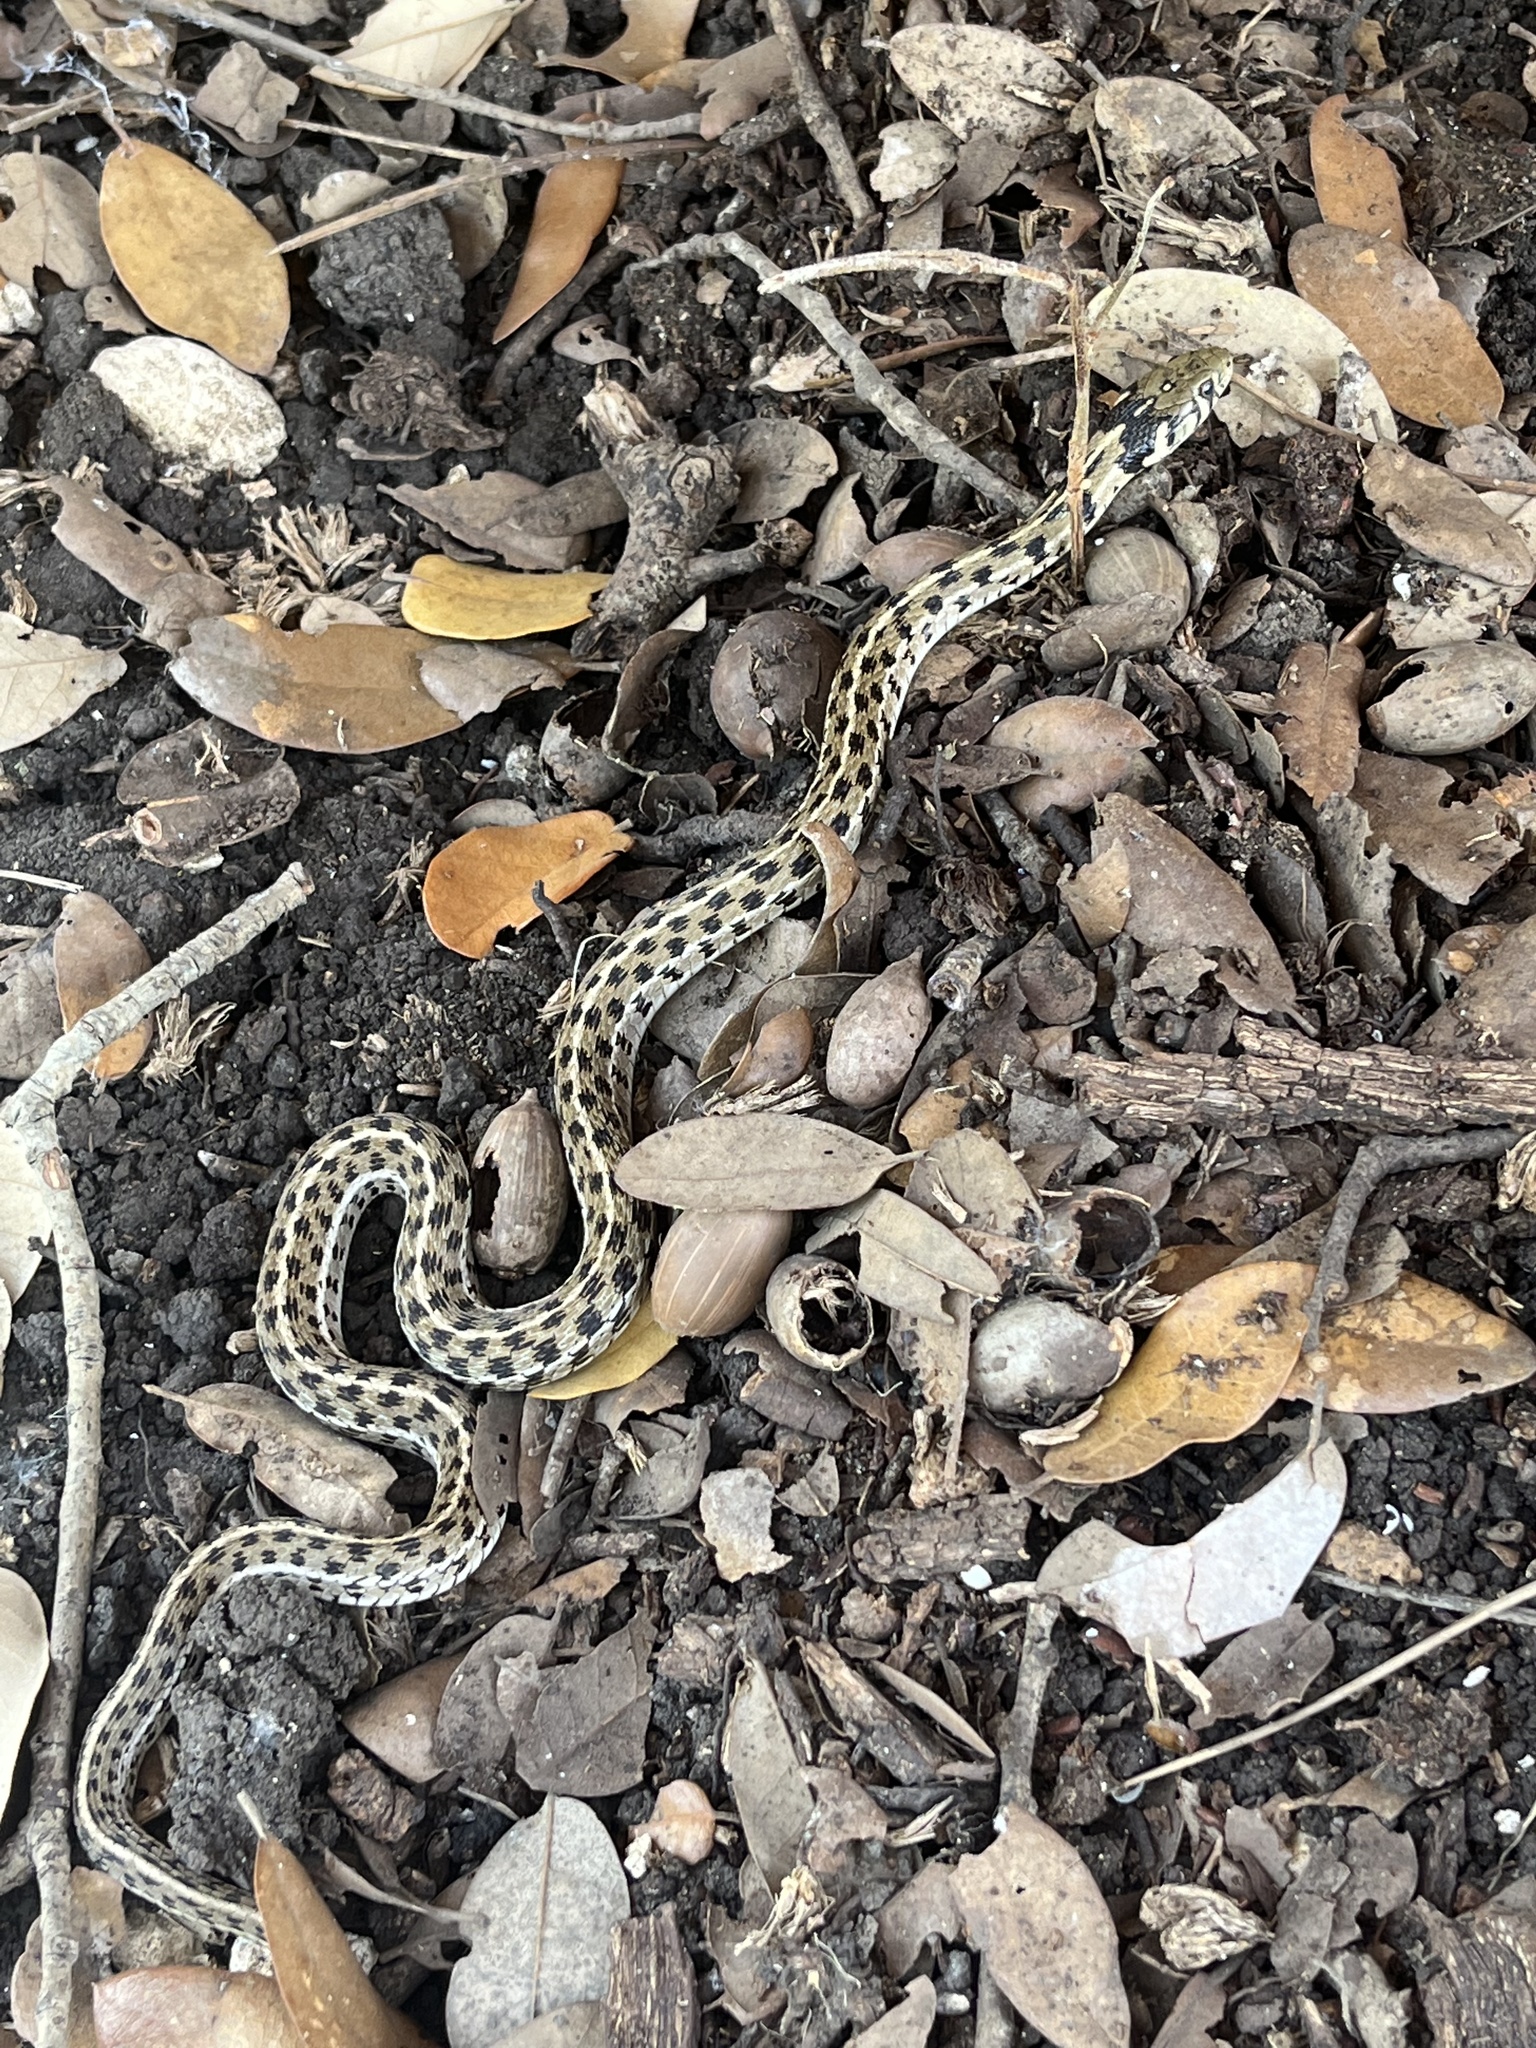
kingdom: Animalia
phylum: Chordata
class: Squamata
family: Colubridae
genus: Thamnophis
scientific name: Thamnophis marcianus
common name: Checkered garter snake
